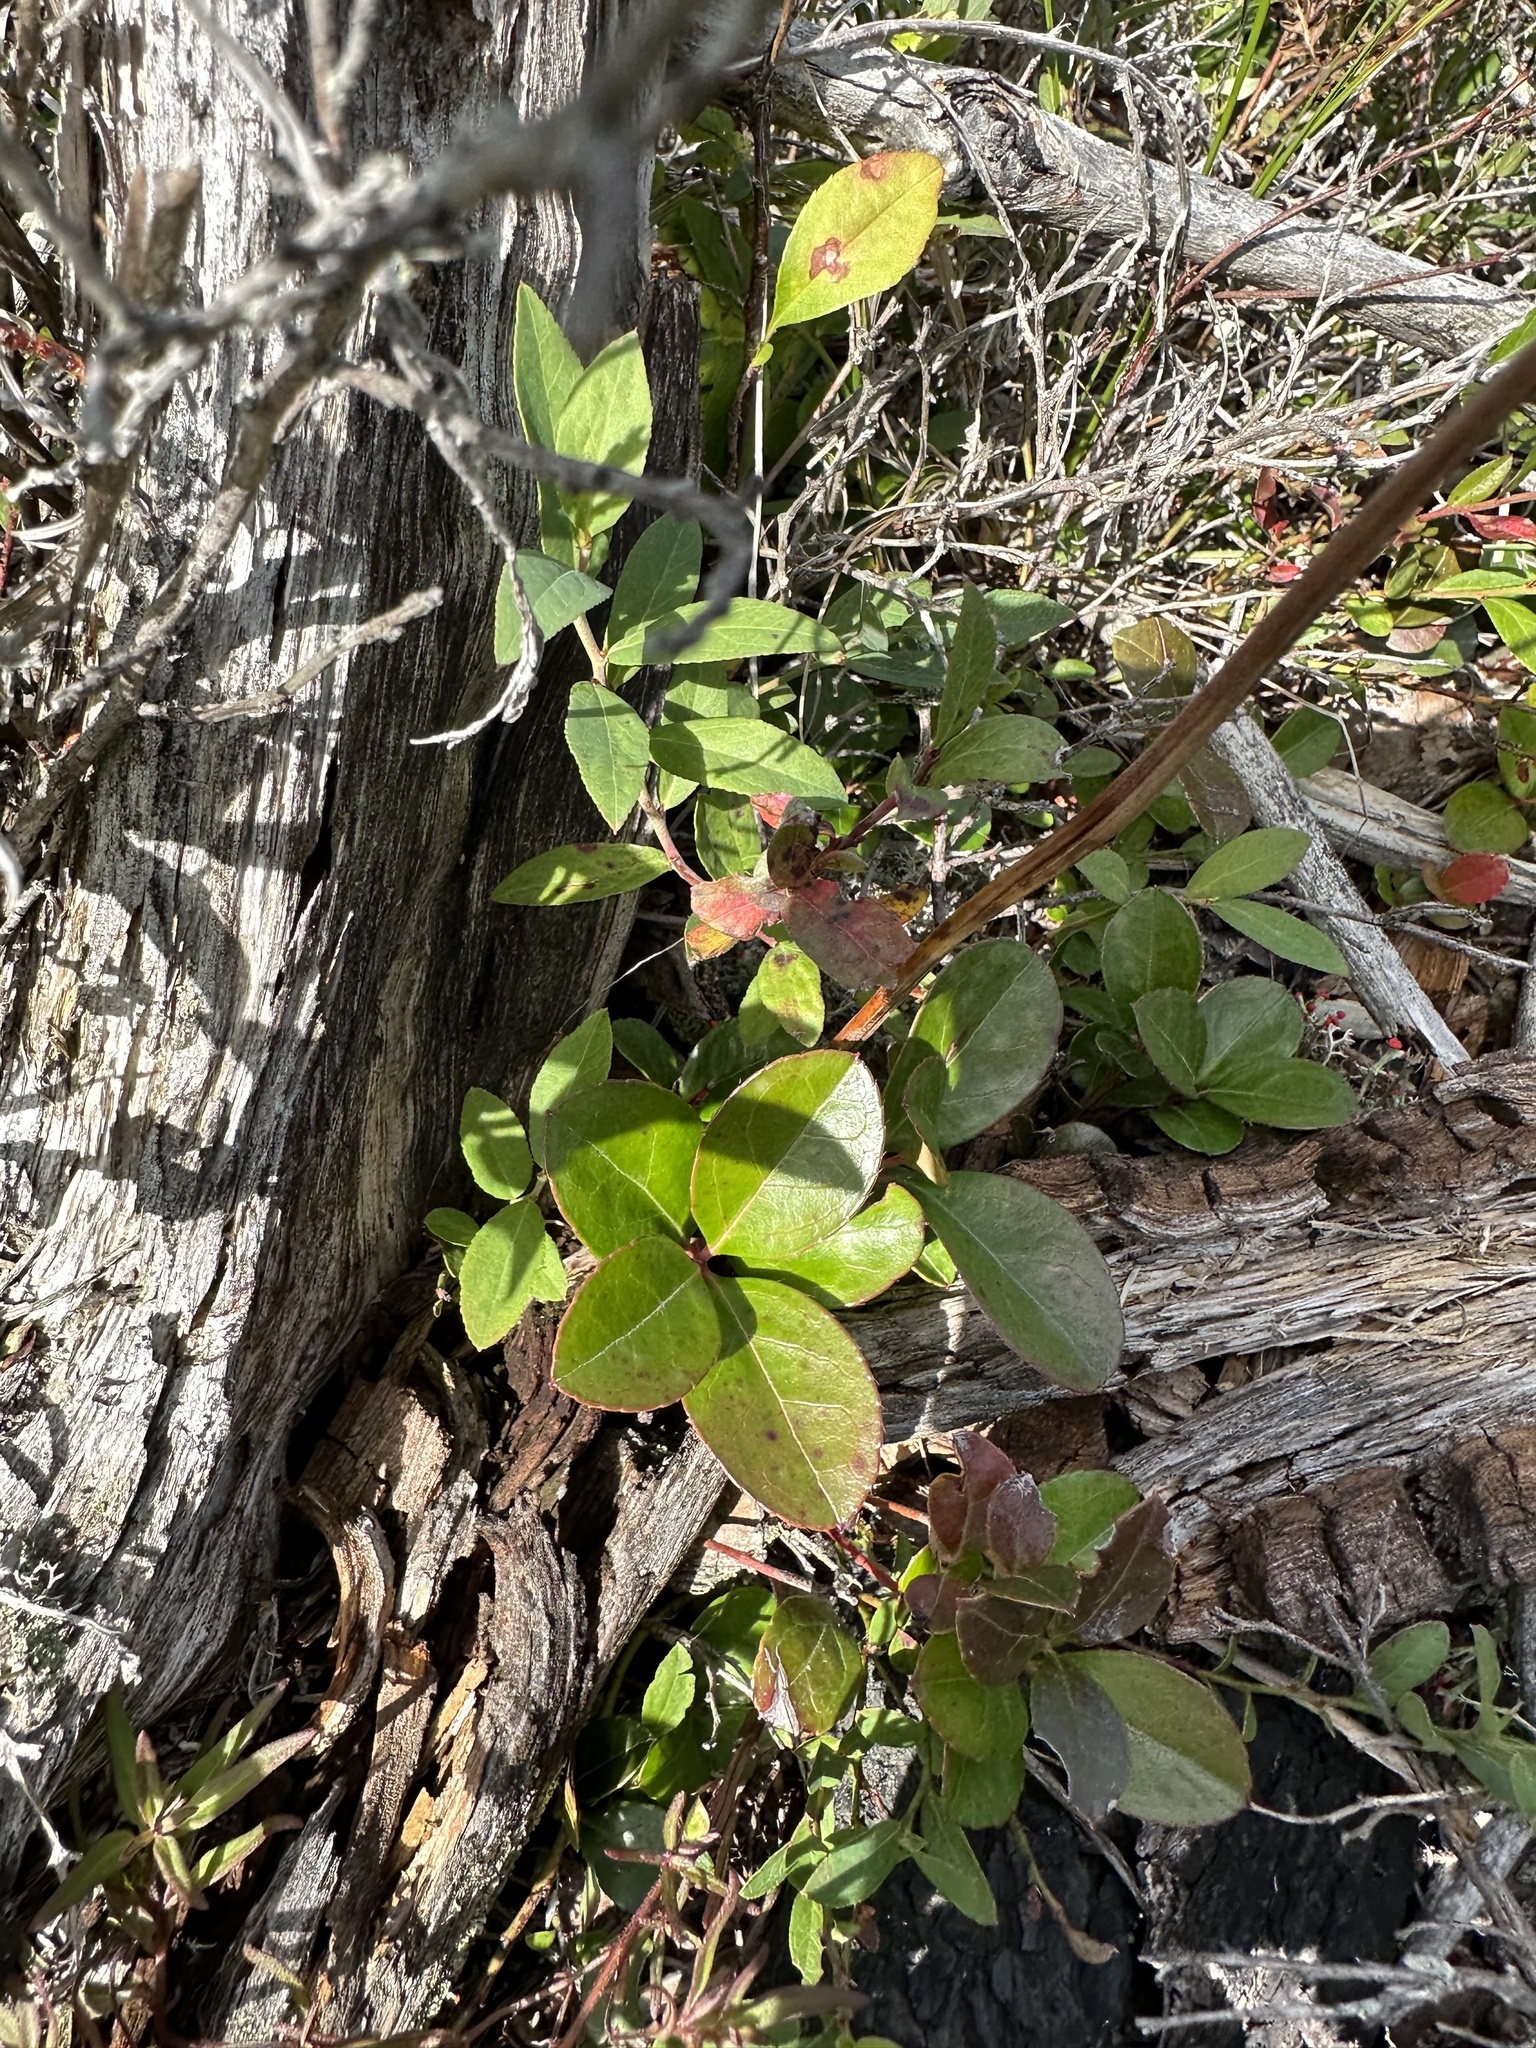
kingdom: Plantae
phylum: Tracheophyta
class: Magnoliopsida
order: Ericales
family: Ericaceae
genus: Gaultheria
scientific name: Gaultheria procumbens
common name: Checkerberry
